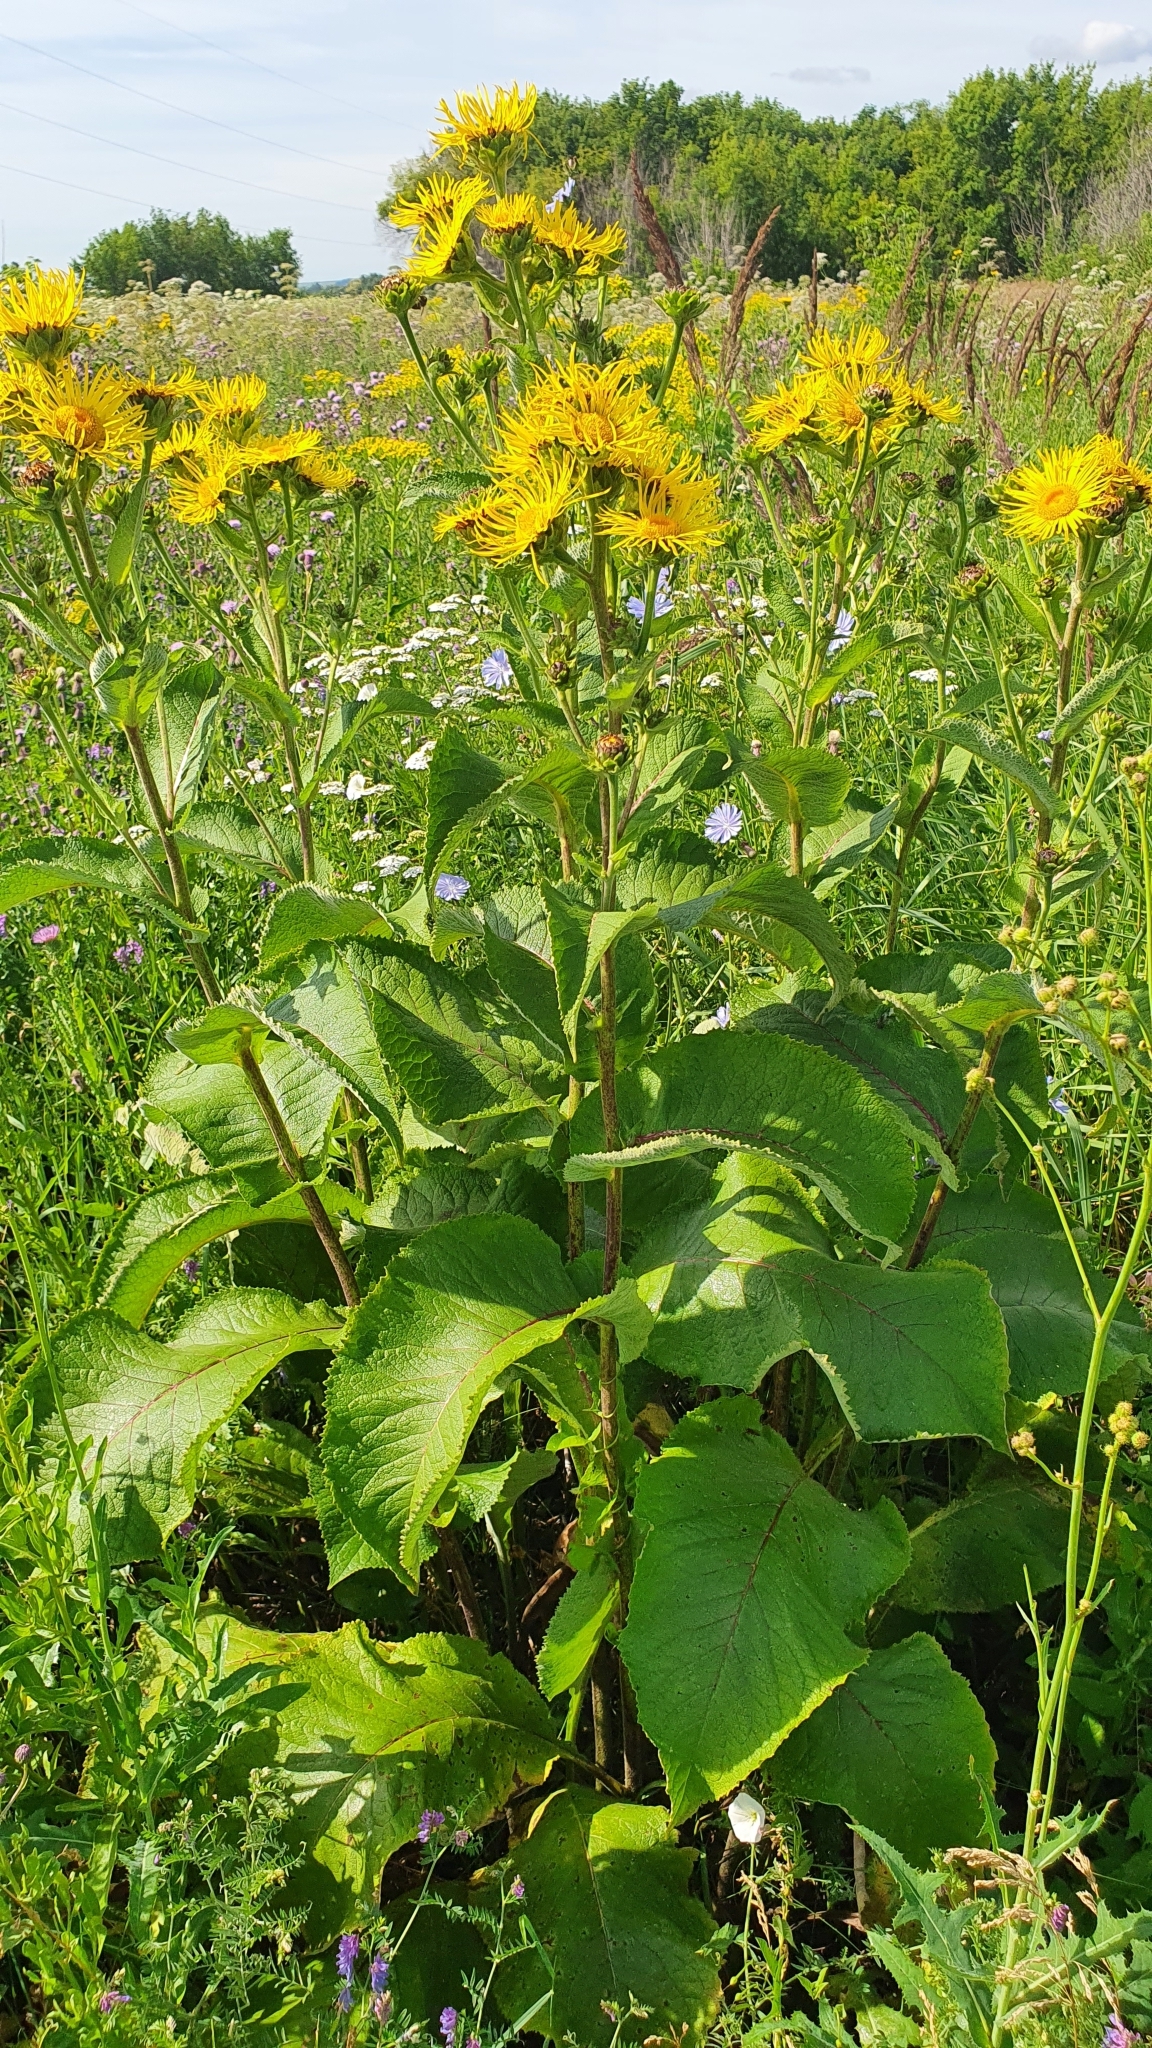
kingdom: Plantae
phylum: Tracheophyta
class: Magnoliopsida
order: Asterales
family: Asteraceae
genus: Inula
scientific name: Inula helenium
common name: Elecampane
